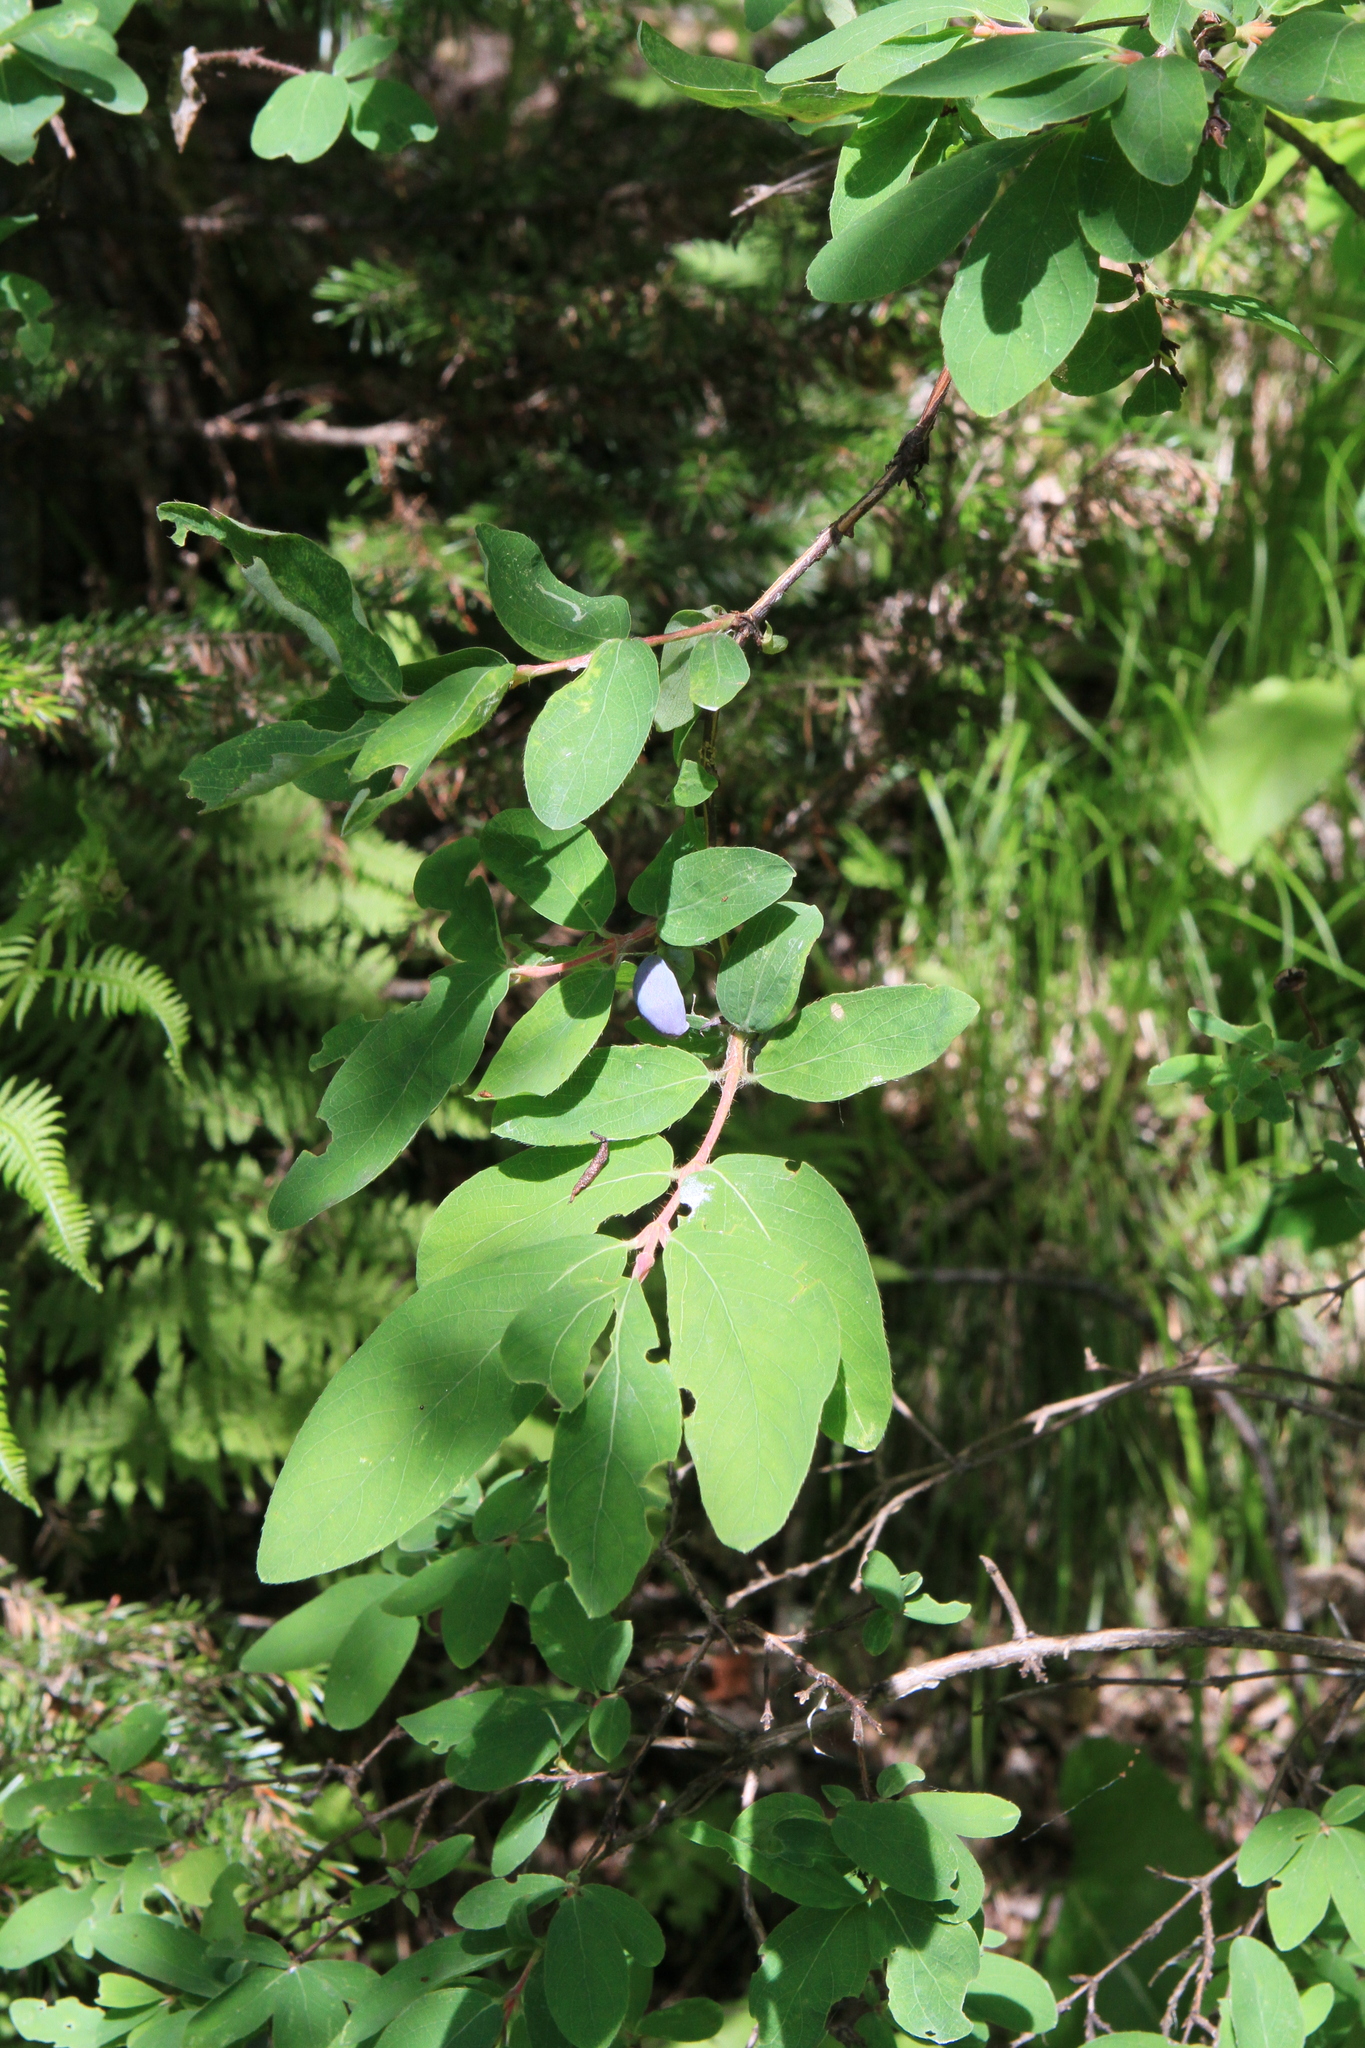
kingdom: Plantae
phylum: Tracheophyta
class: Magnoliopsida
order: Dipsacales
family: Caprifoliaceae
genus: Lonicera
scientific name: Lonicera caerulea
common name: Blue honeysuckle
